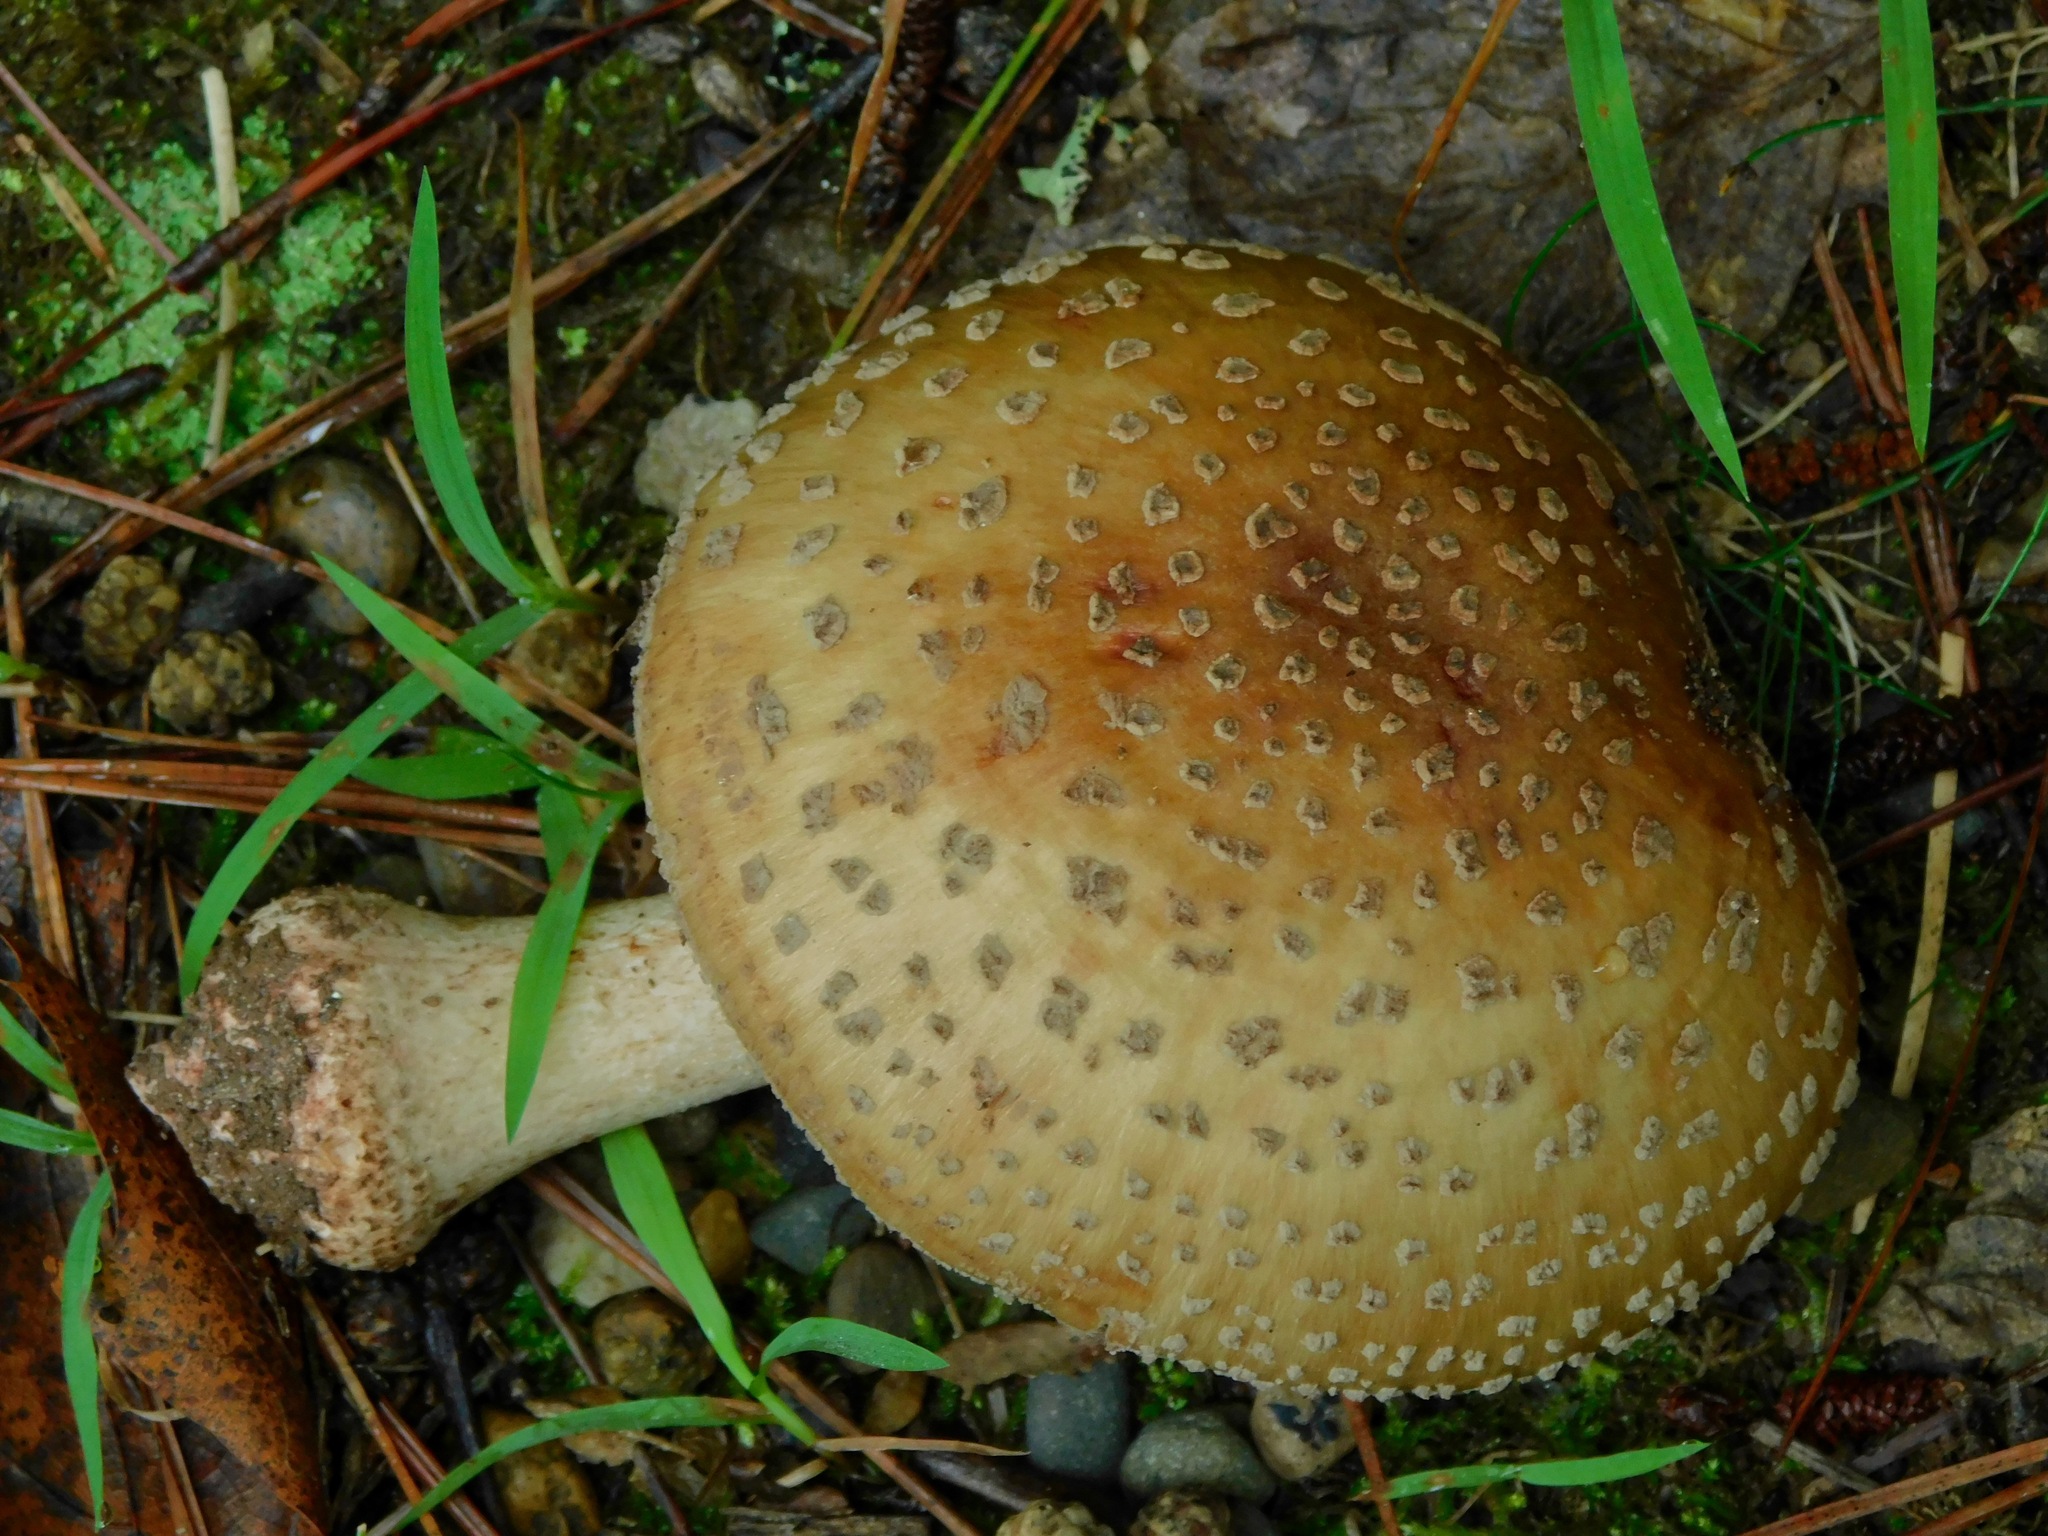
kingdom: Fungi
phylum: Basidiomycota
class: Agaricomycetes
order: Agaricales
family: Amanitaceae
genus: Amanita
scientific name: Amanita rubescens
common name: Blusher
